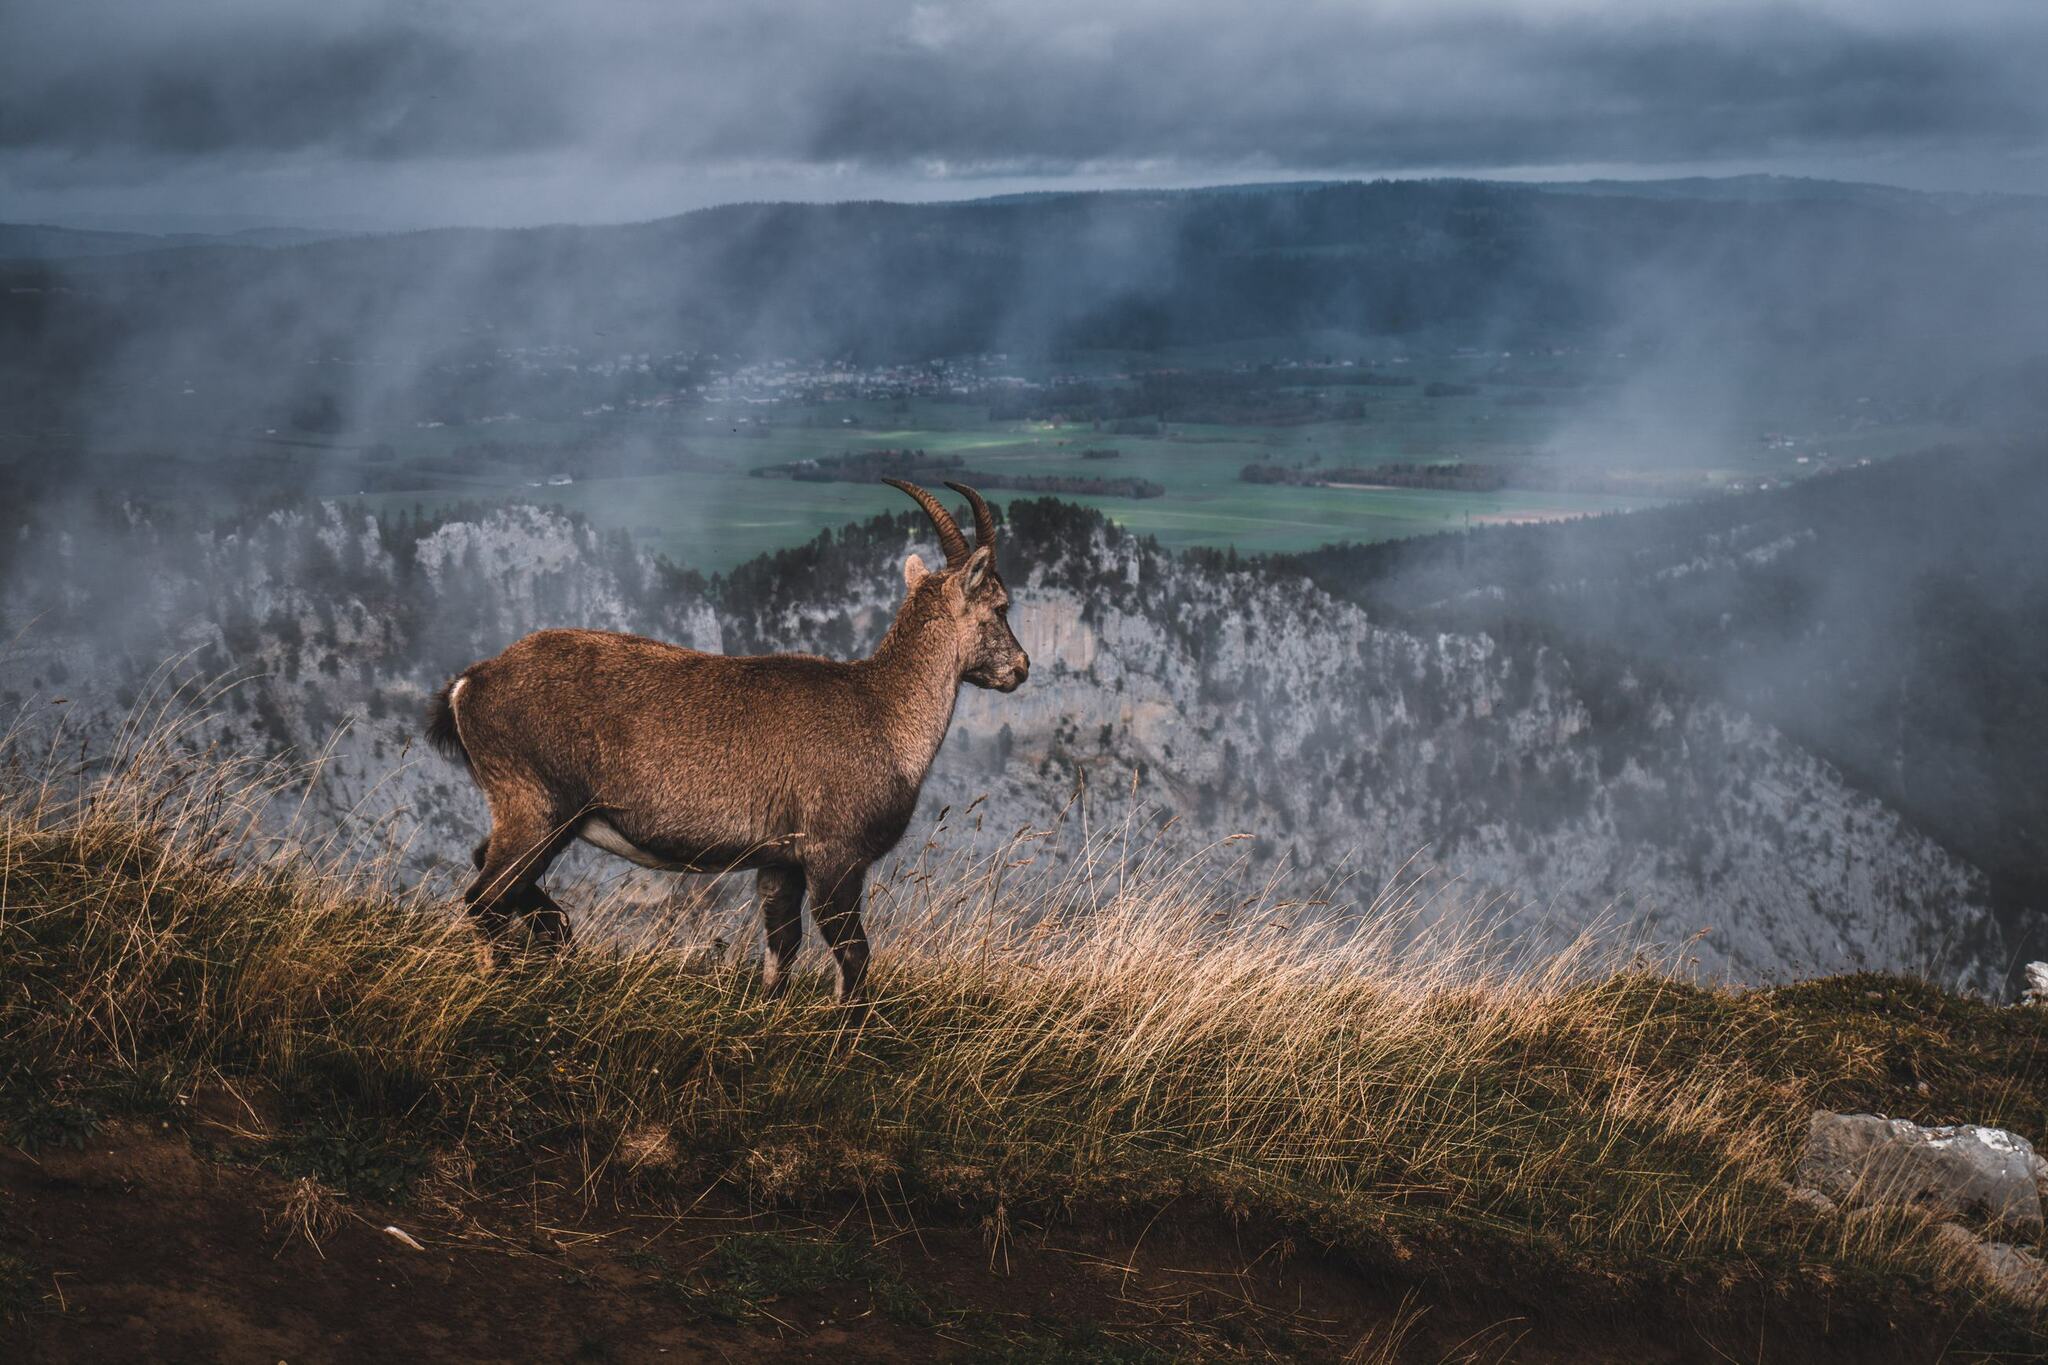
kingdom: Animalia
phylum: Chordata
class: Mammalia
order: Artiodactyla
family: Bovidae
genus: Capra
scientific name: Capra ibex
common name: Alpine ibex
